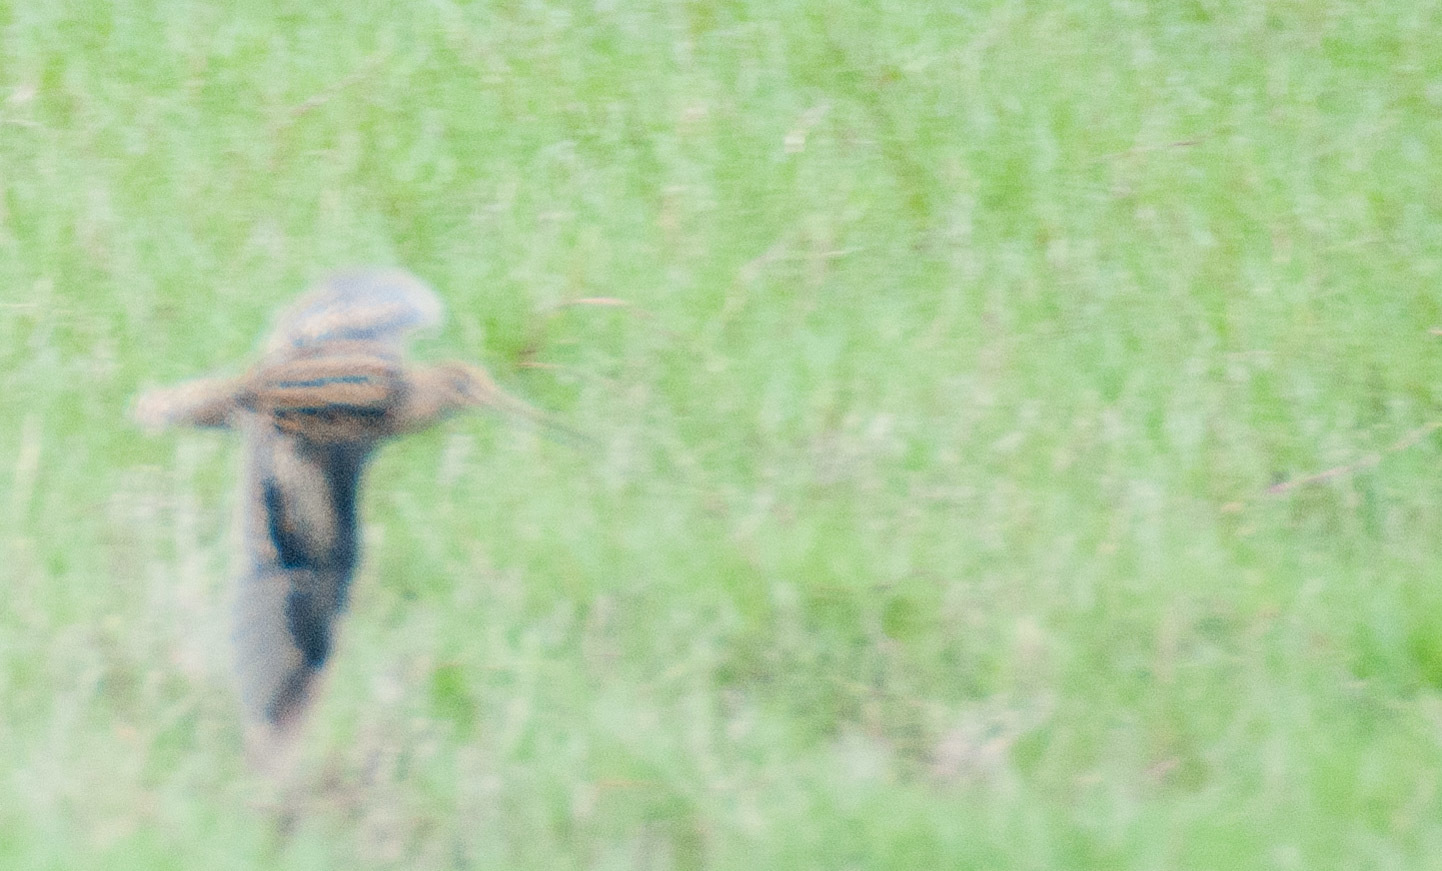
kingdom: Animalia
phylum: Chordata
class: Aves
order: Charadriiformes
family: Scolopacidae
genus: Gallinago
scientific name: Gallinago hardwickii
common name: Latham's snipe
